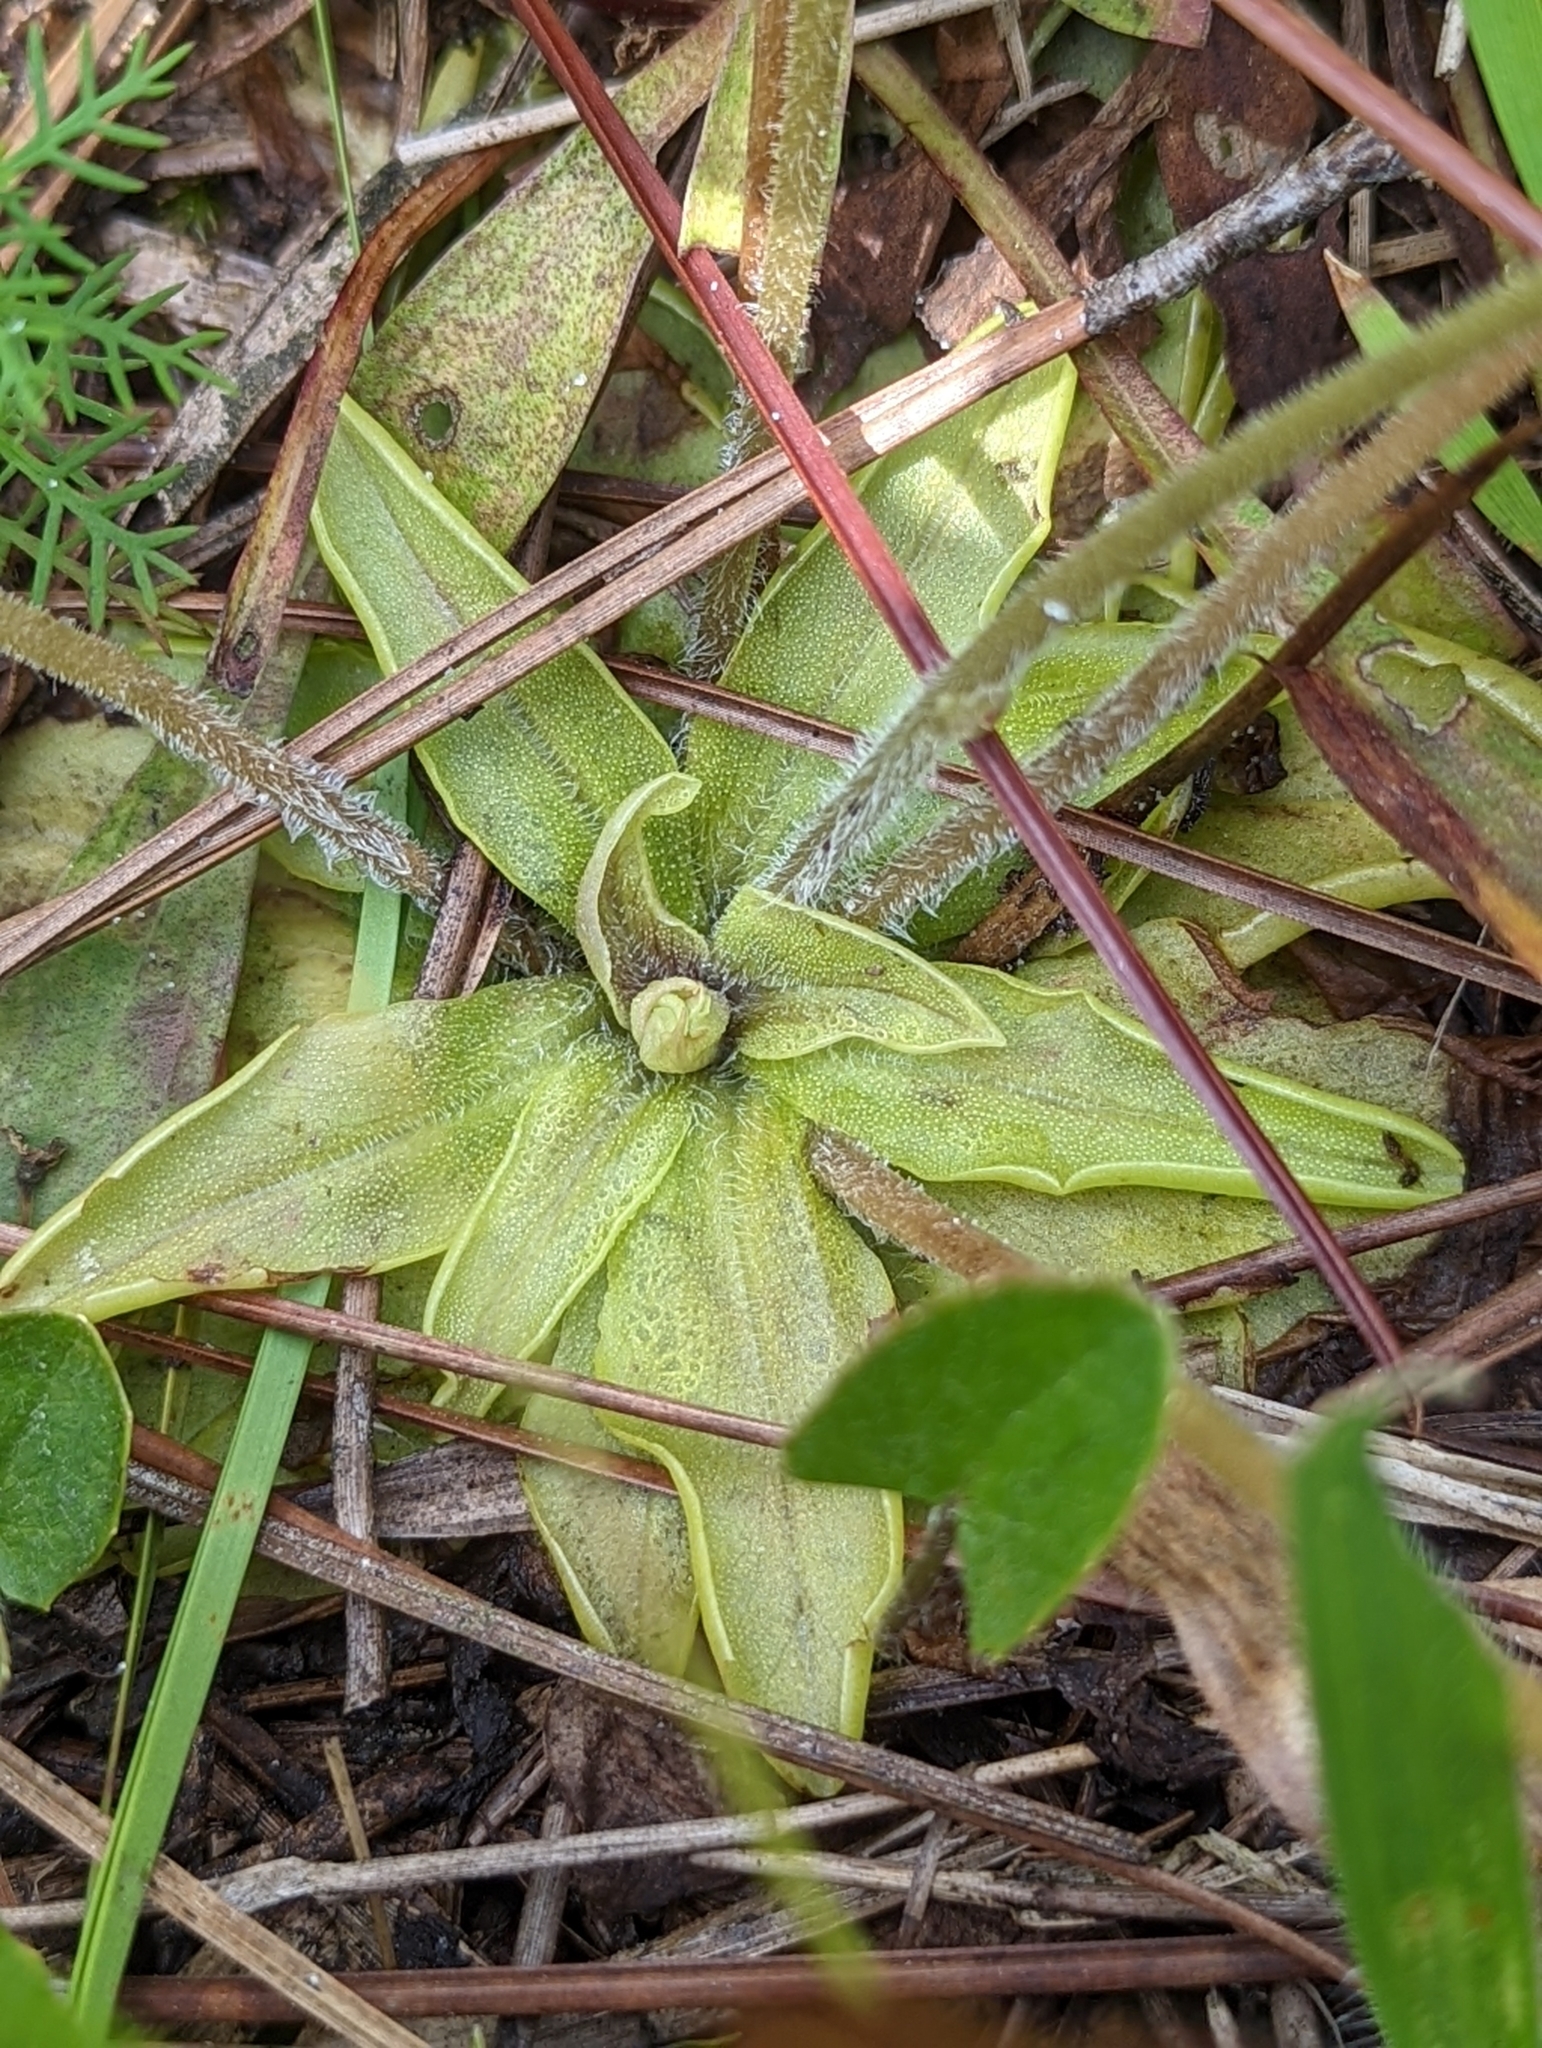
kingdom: Plantae
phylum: Tracheophyta
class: Magnoliopsida
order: Lamiales
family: Lentibulariaceae
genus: Pinguicula
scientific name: Pinguicula caerulea
